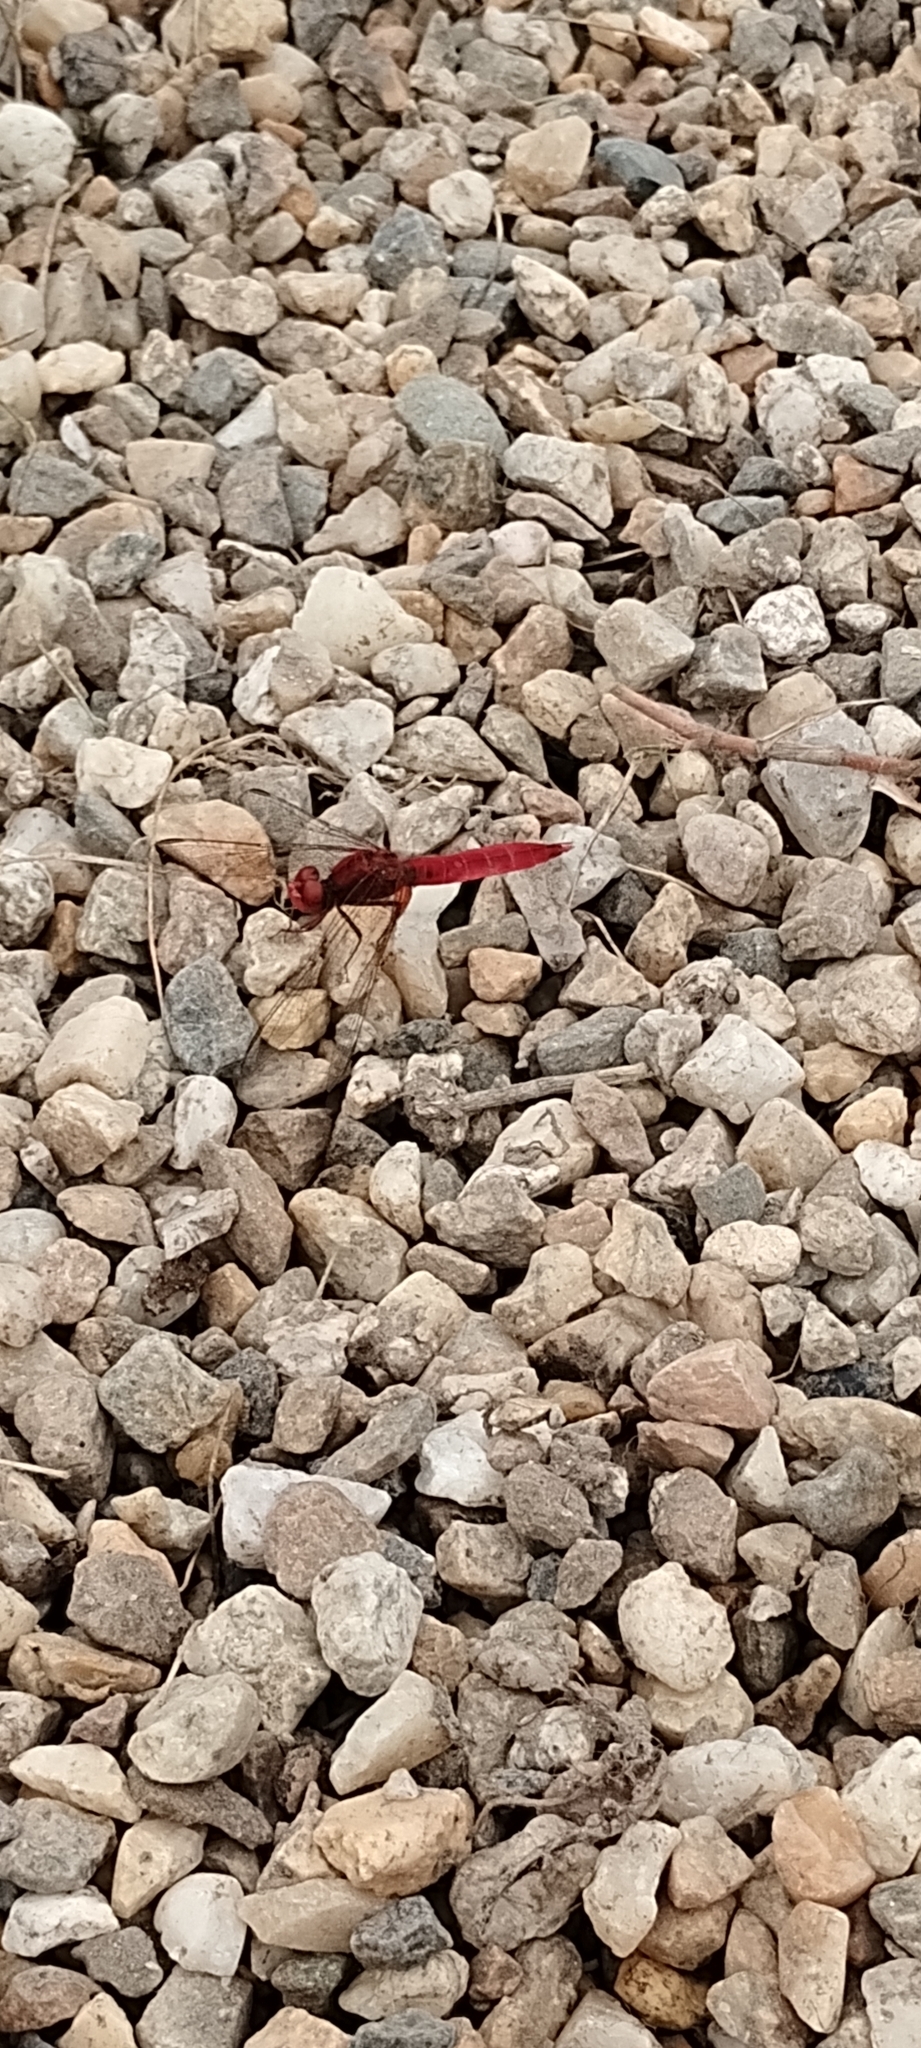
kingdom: Animalia
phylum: Arthropoda
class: Insecta
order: Odonata
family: Libellulidae
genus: Crocothemis
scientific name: Crocothemis erythraea
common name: Scarlet dragonfly
